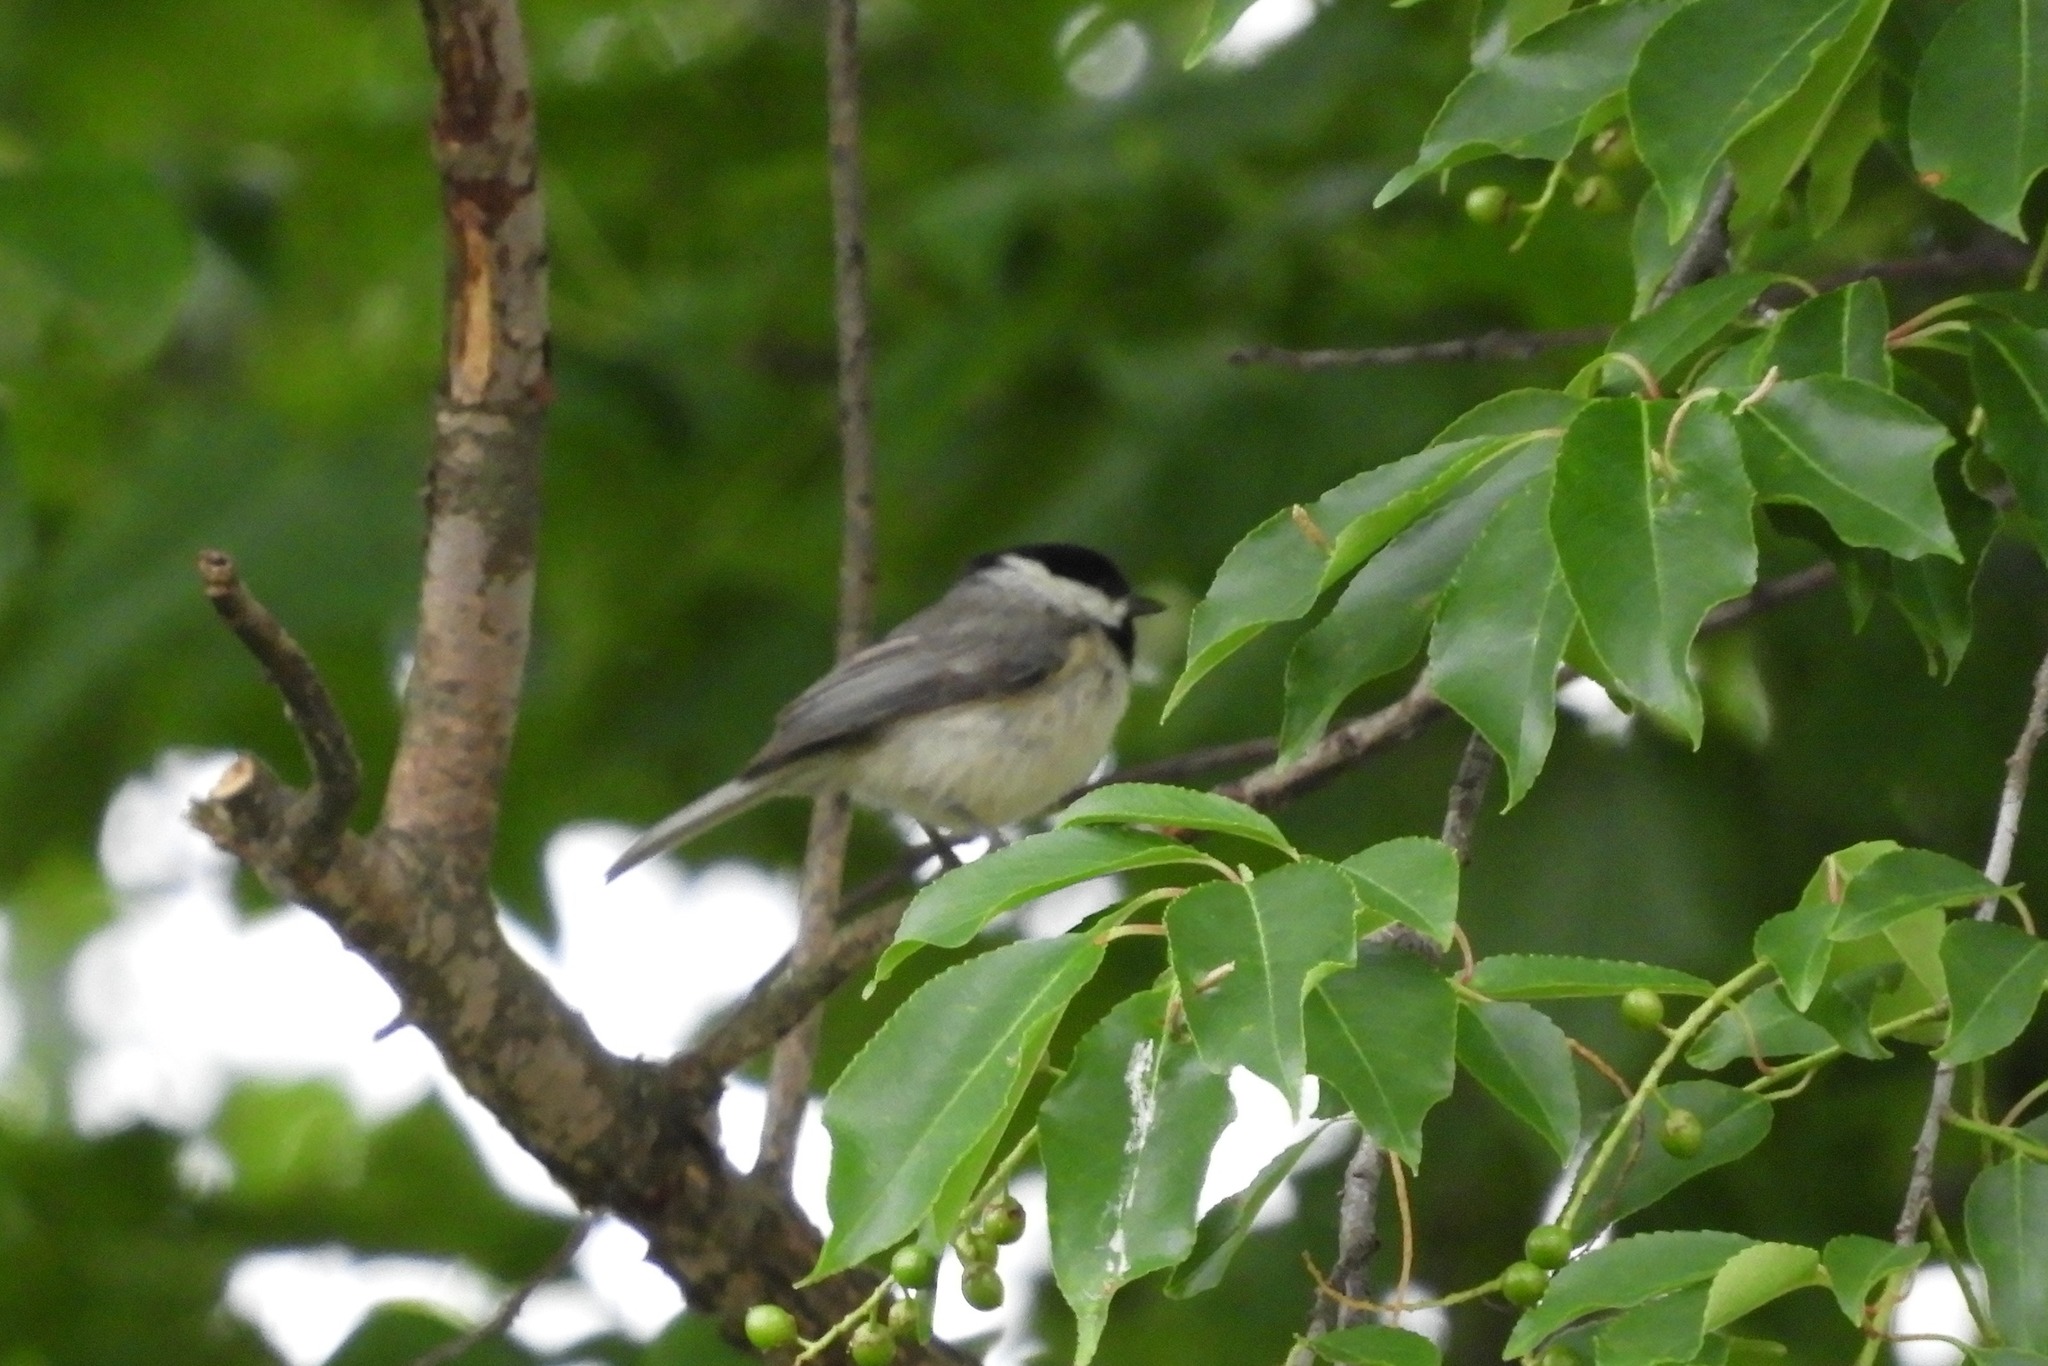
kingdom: Animalia
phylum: Chordata
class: Aves
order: Passeriformes
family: Paridae
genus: Poecile
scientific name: Poecile carolinensis
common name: Carolina chickadee
